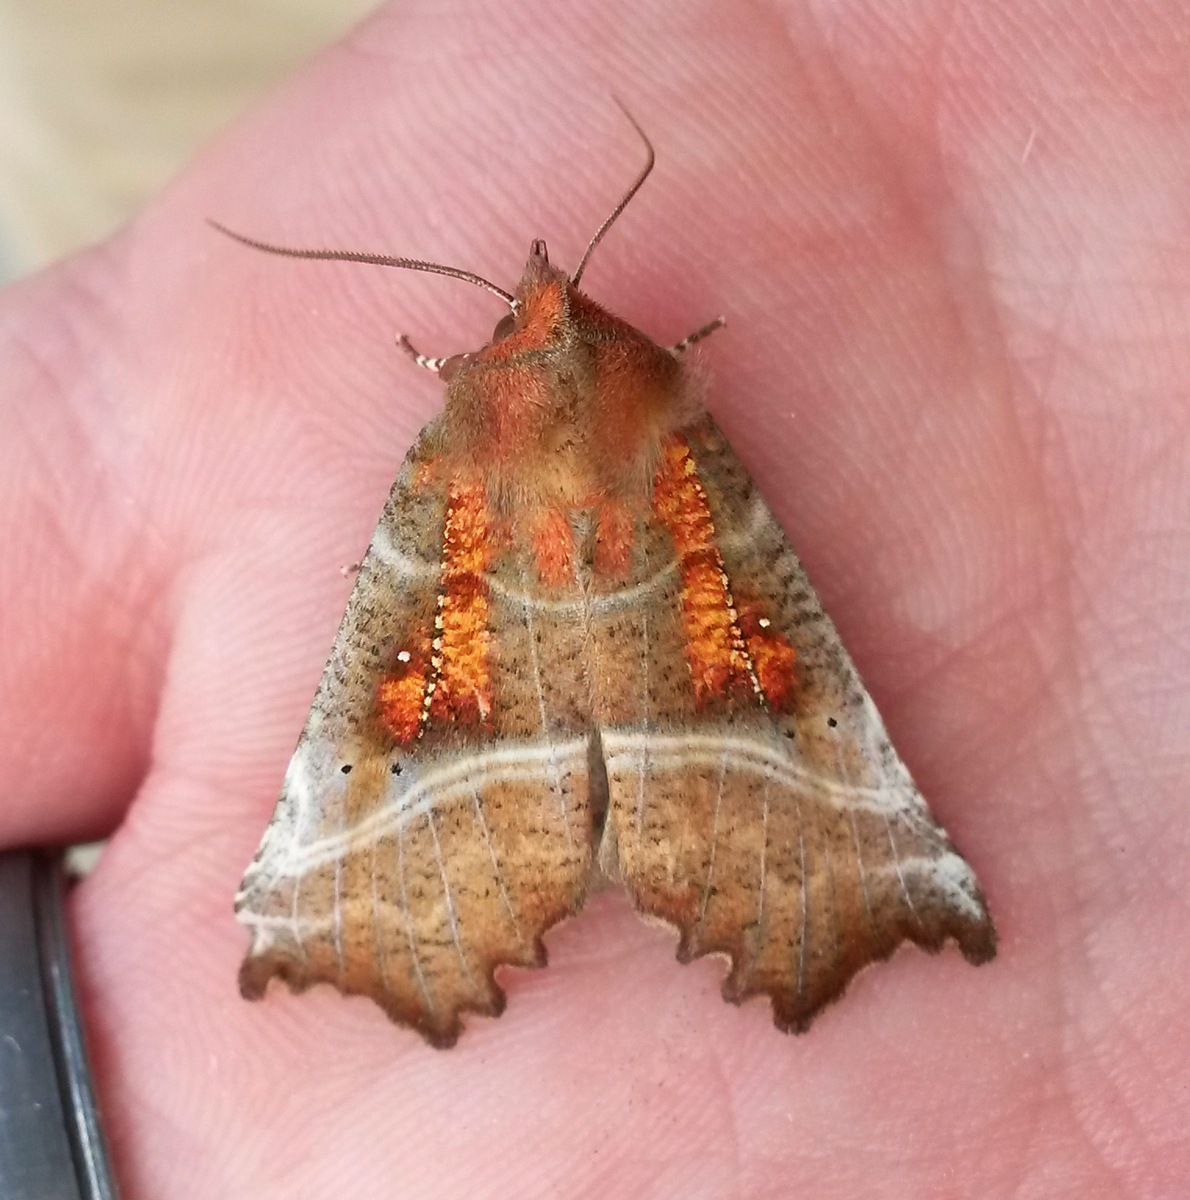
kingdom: Animalia
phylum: Arthropoda
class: Insecta
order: Lepidoptera
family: Erebidae
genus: Scoliopteryx
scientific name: Scoliopteryx libatrix
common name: Herald
